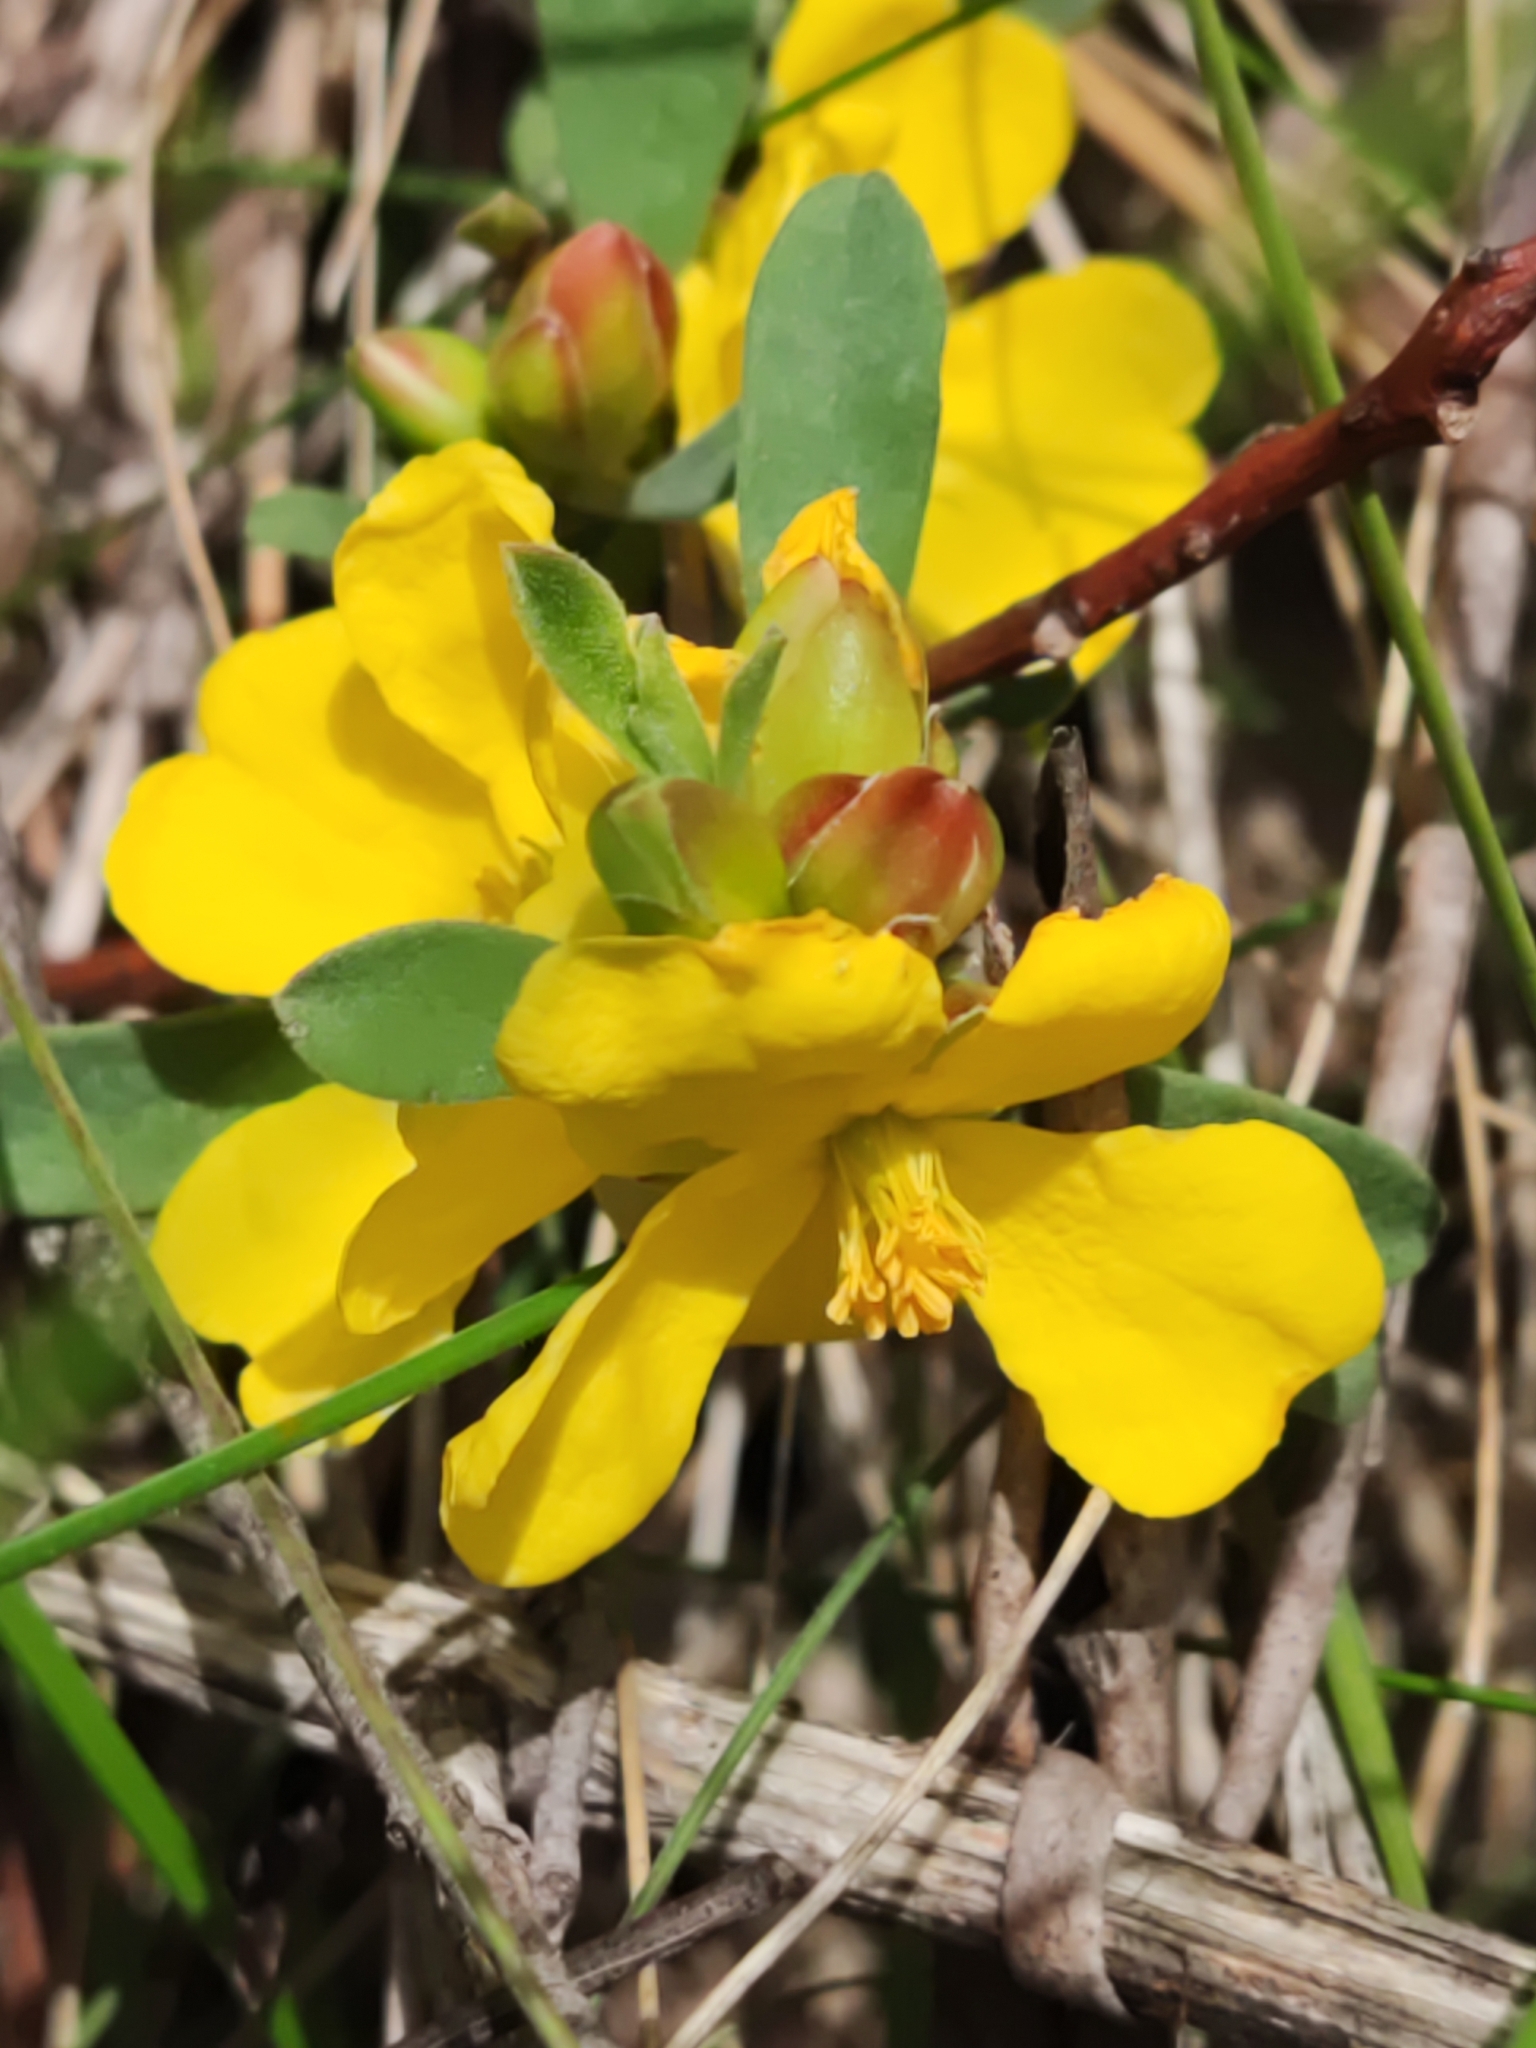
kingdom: Plantae
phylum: Tracheophyta
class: Magnoliopsida
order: Dilleniales
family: Dilleniaceae
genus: Hibbertia
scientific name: Hibbertia obtusifolia
